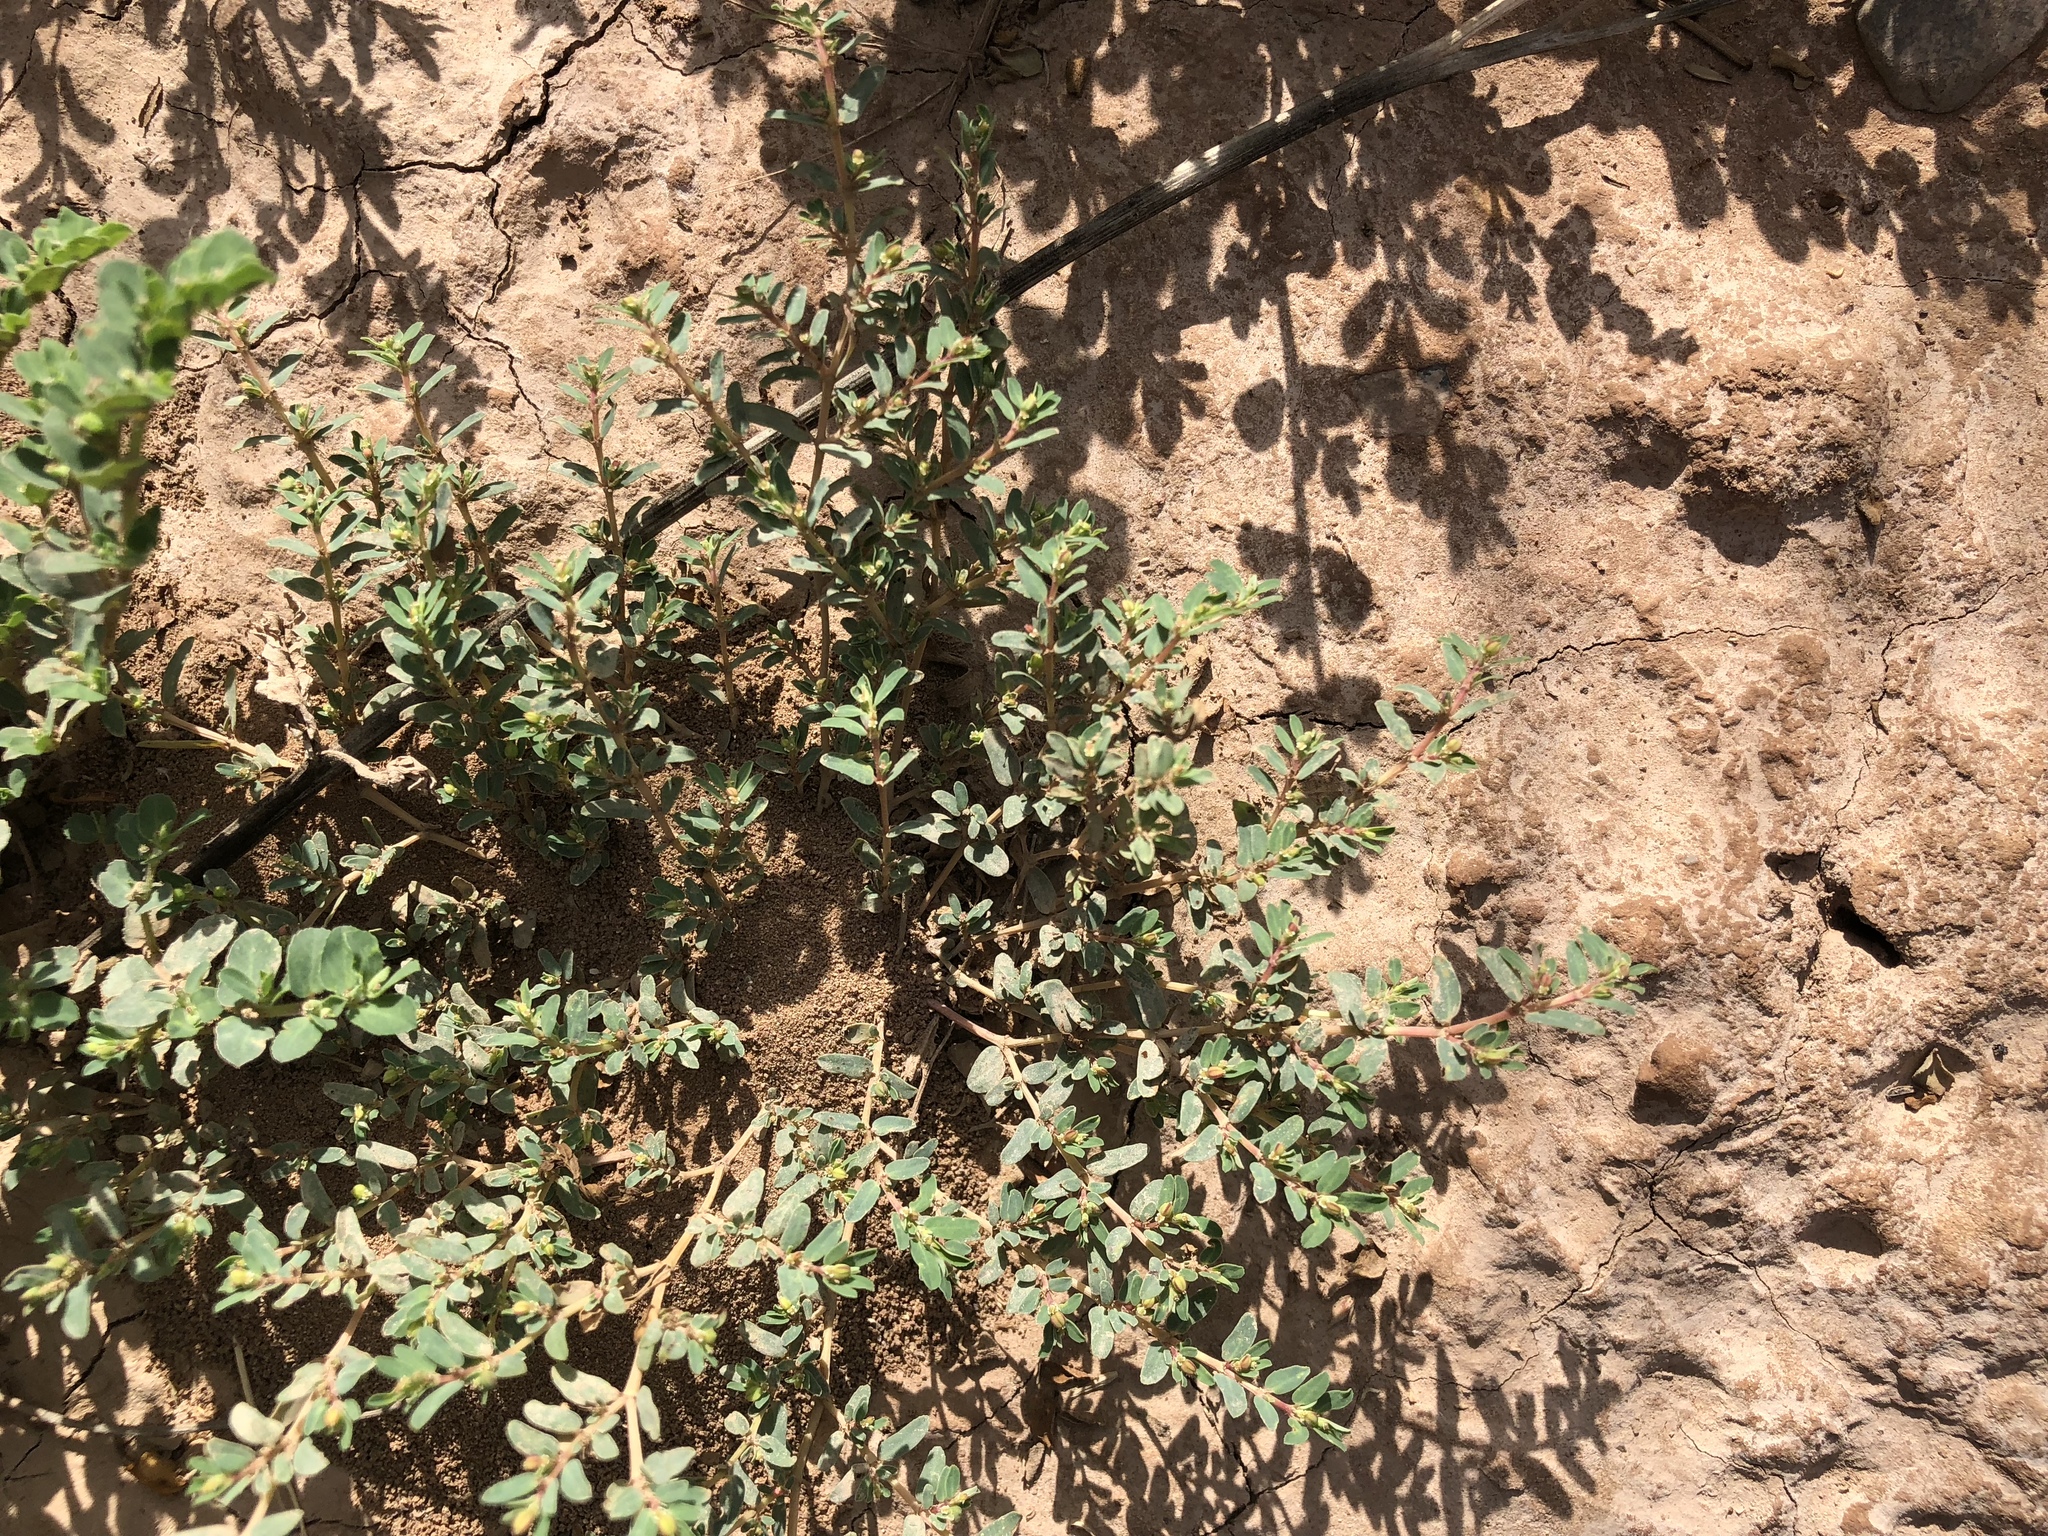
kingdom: Plantae
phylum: Tracheophyta
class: Magnoliopsida
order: Malpighiales
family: Euphorbiaceae
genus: Euphorbia
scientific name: Euphorbia serpillifolia
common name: Thyme-leaf spurge
